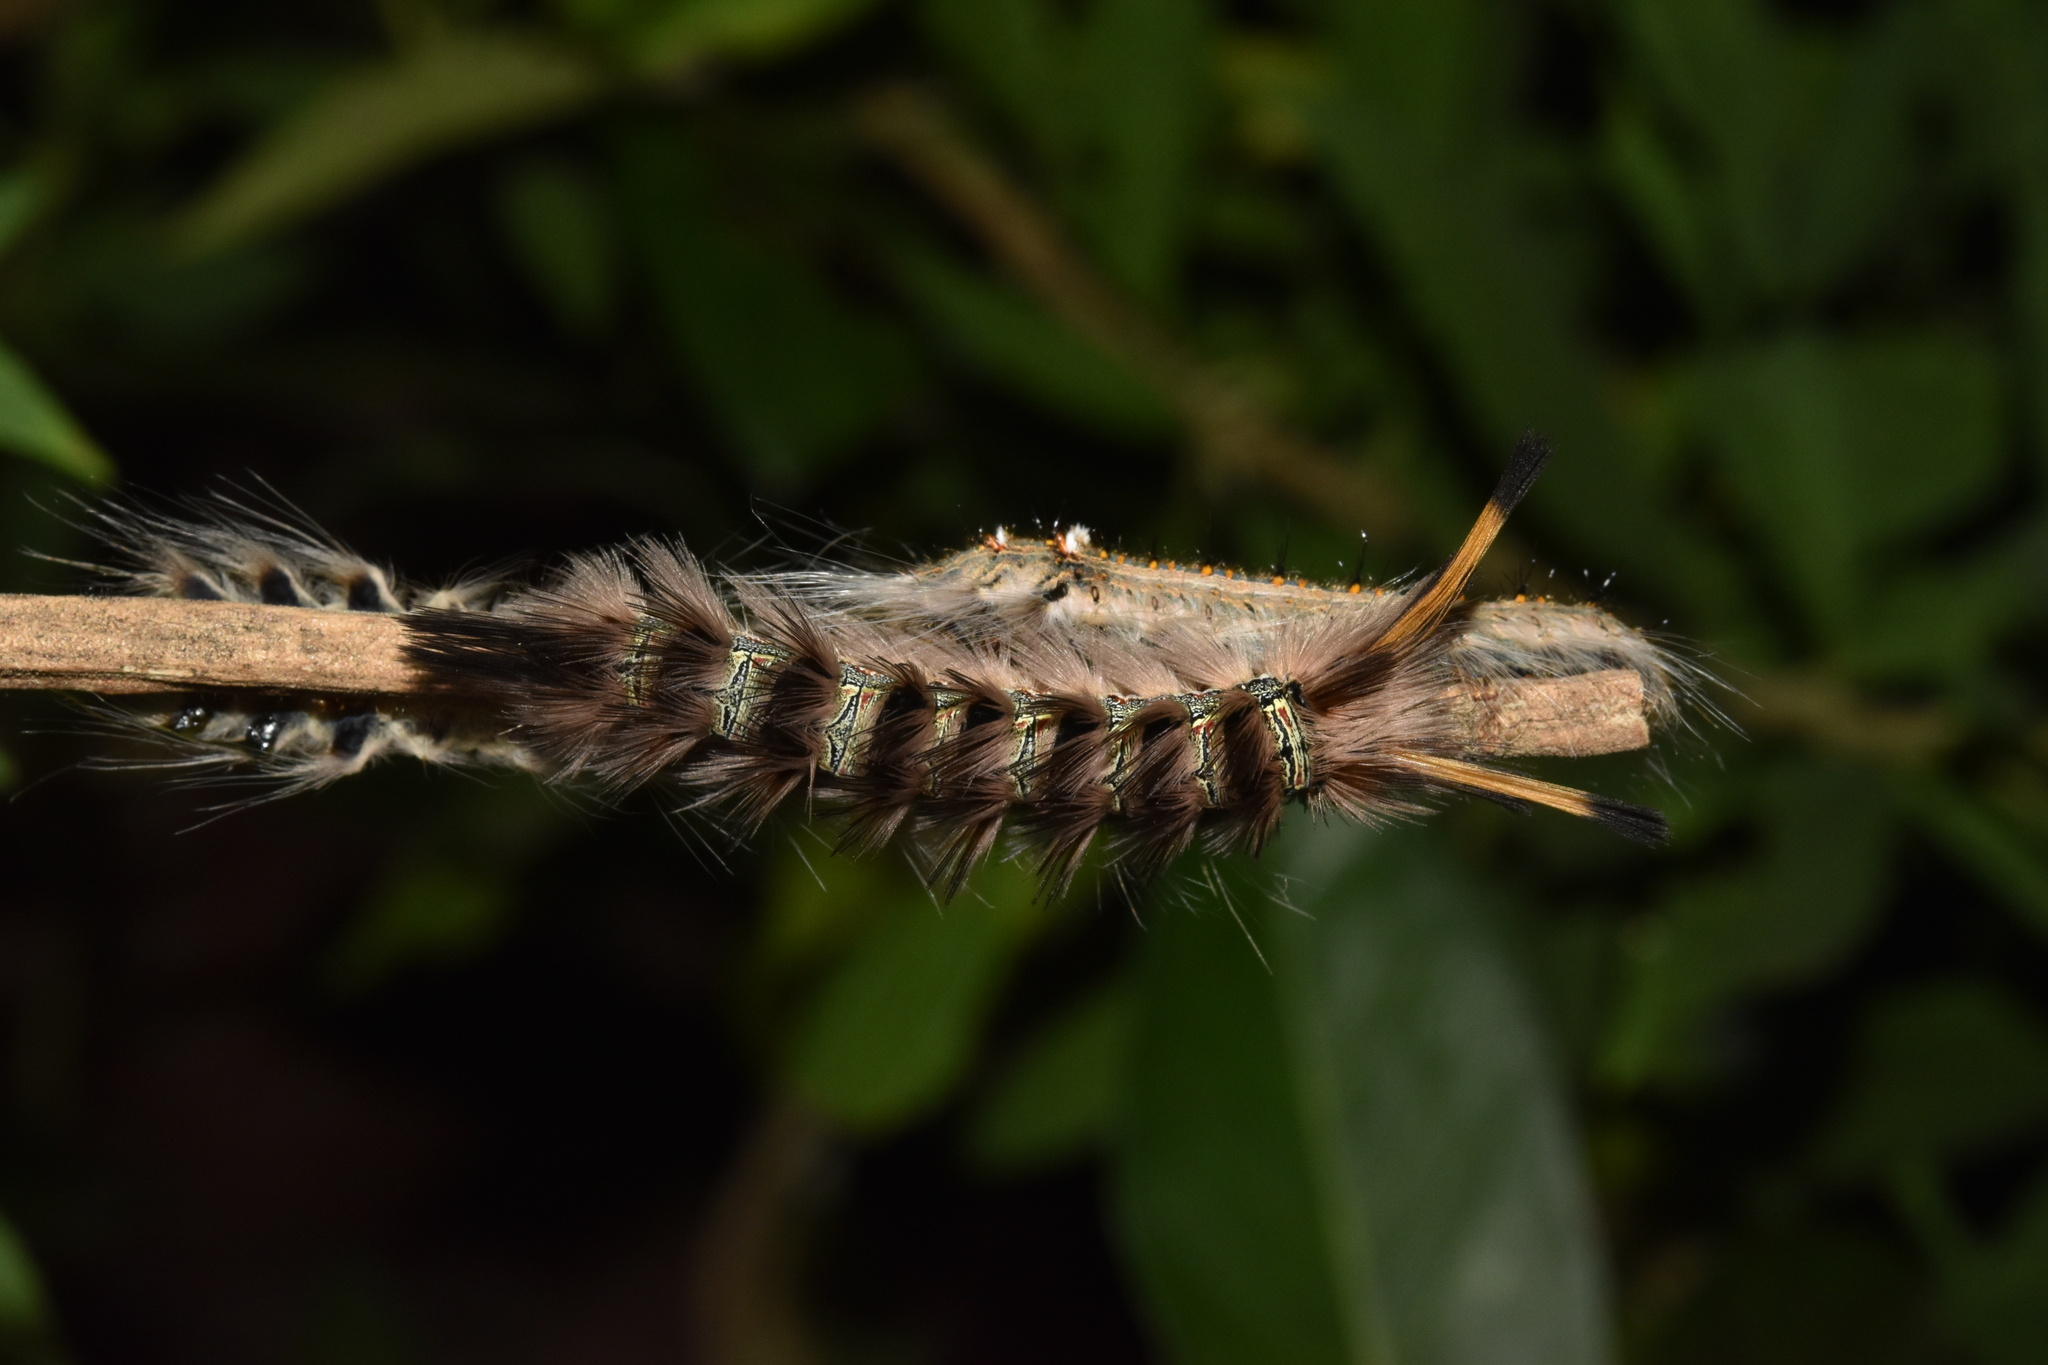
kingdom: Animalia
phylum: Arthropoda
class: Insecta
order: Lepidoptera
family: Eupterotidae
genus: Lichenopteryx
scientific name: Lichenopteryx despecta
